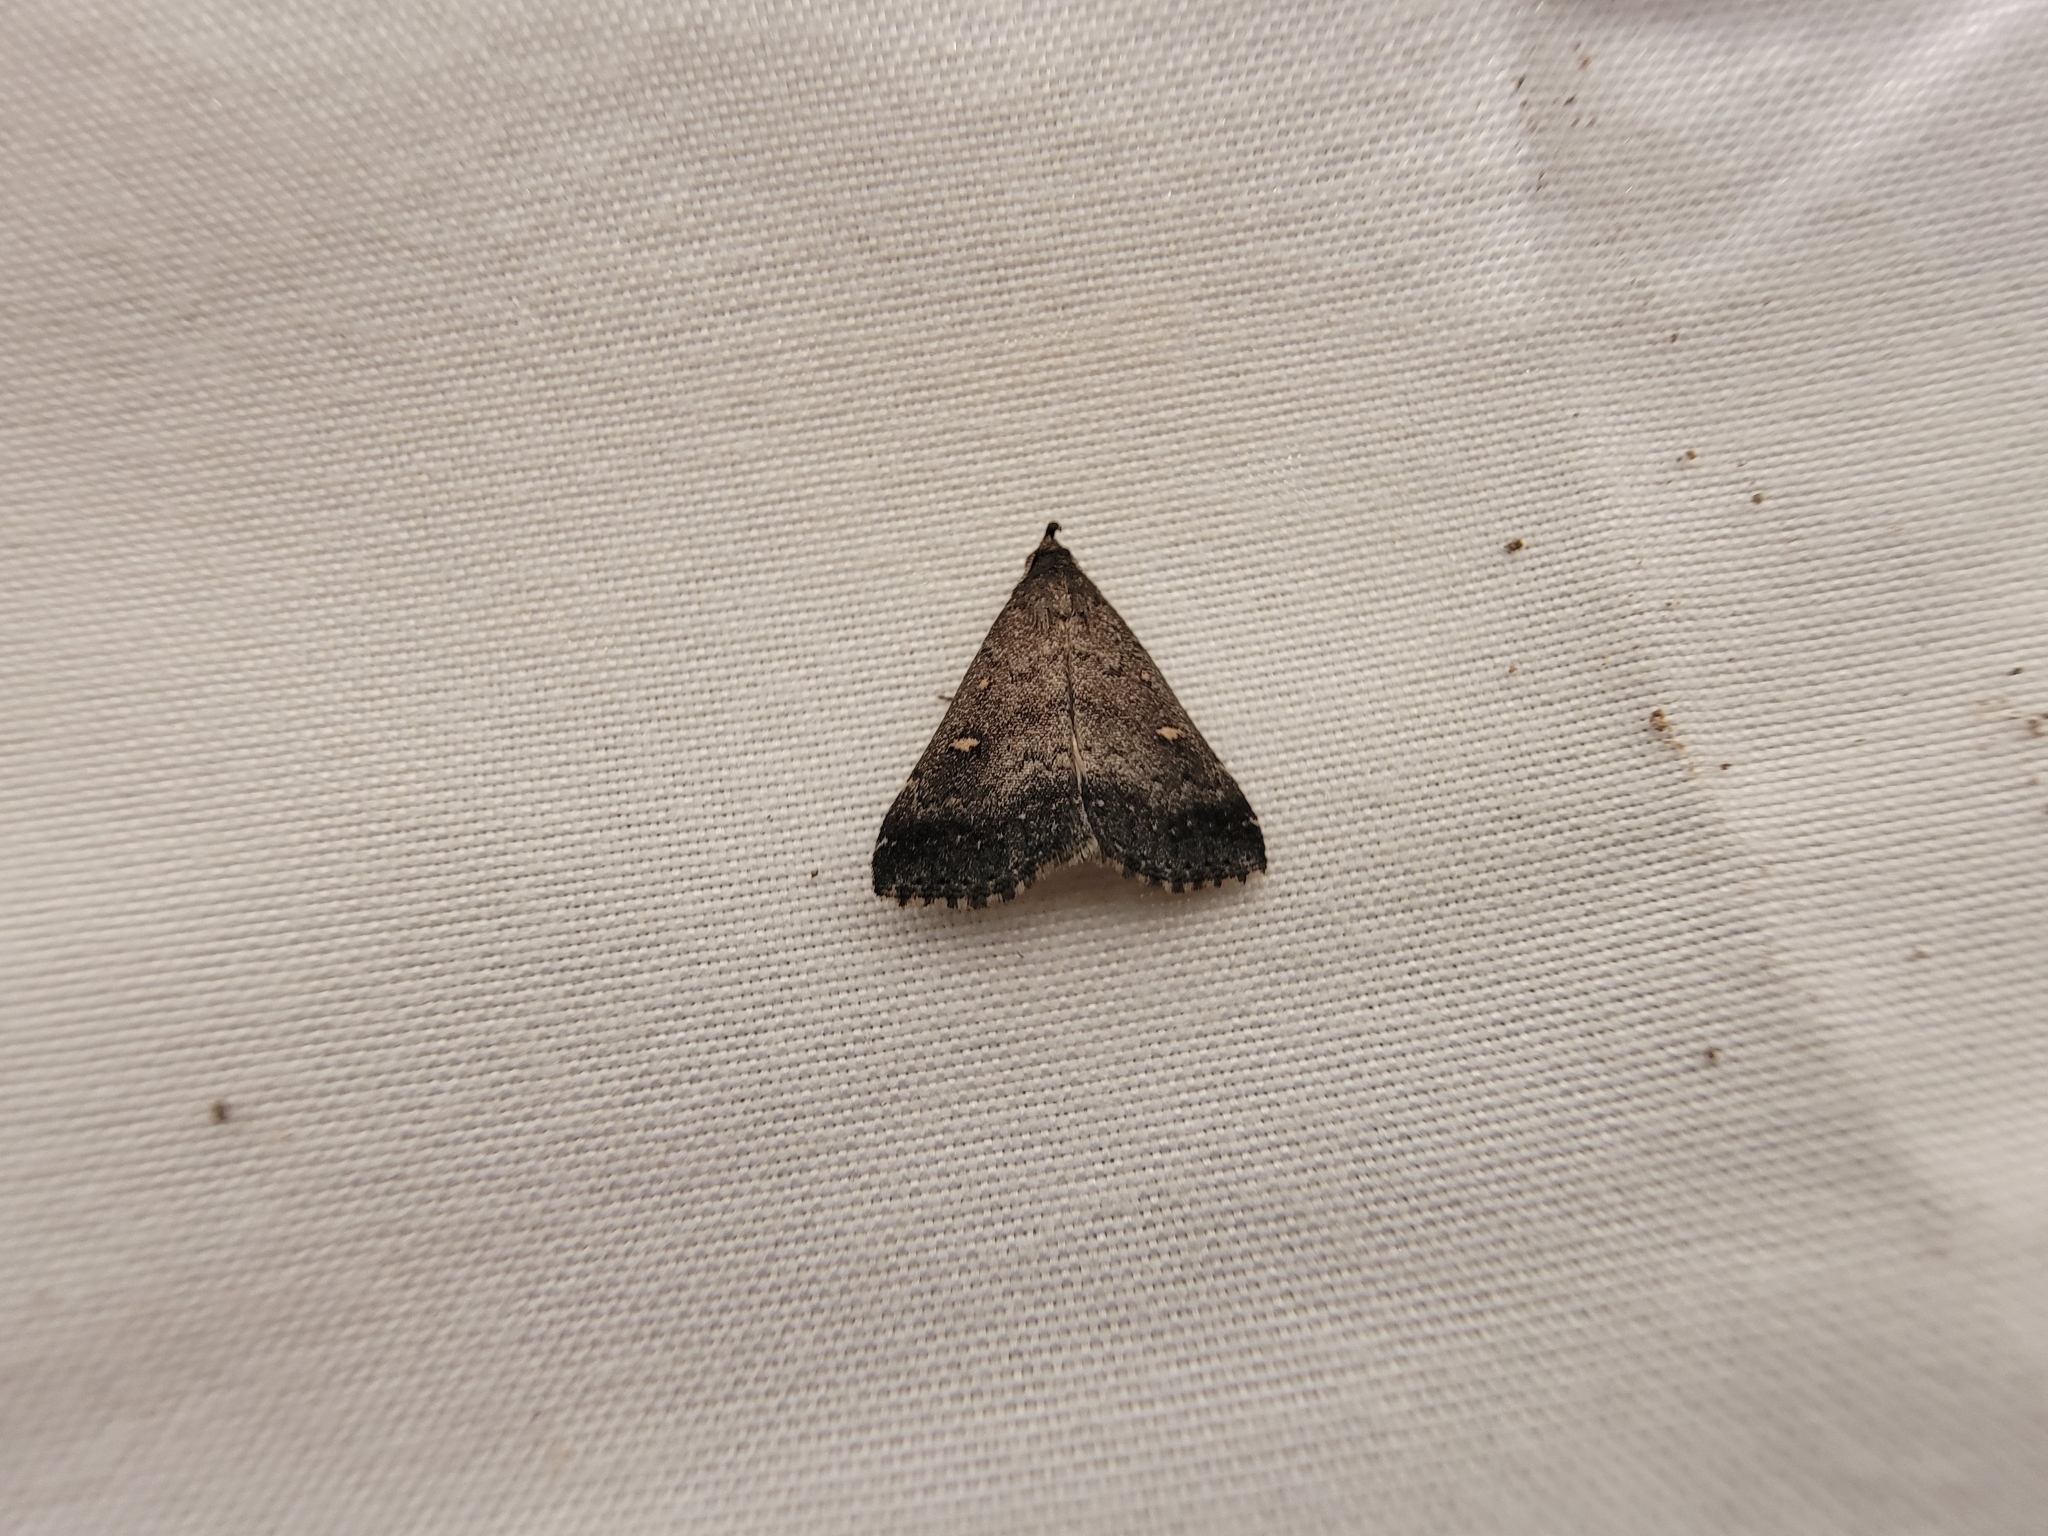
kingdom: Animalia
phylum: Arthropoda
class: Insecta
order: Lepidoptera
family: Erebidae
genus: Tetanolita
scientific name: Tetanolita mynesalis
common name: Smoky tetanolita moth
